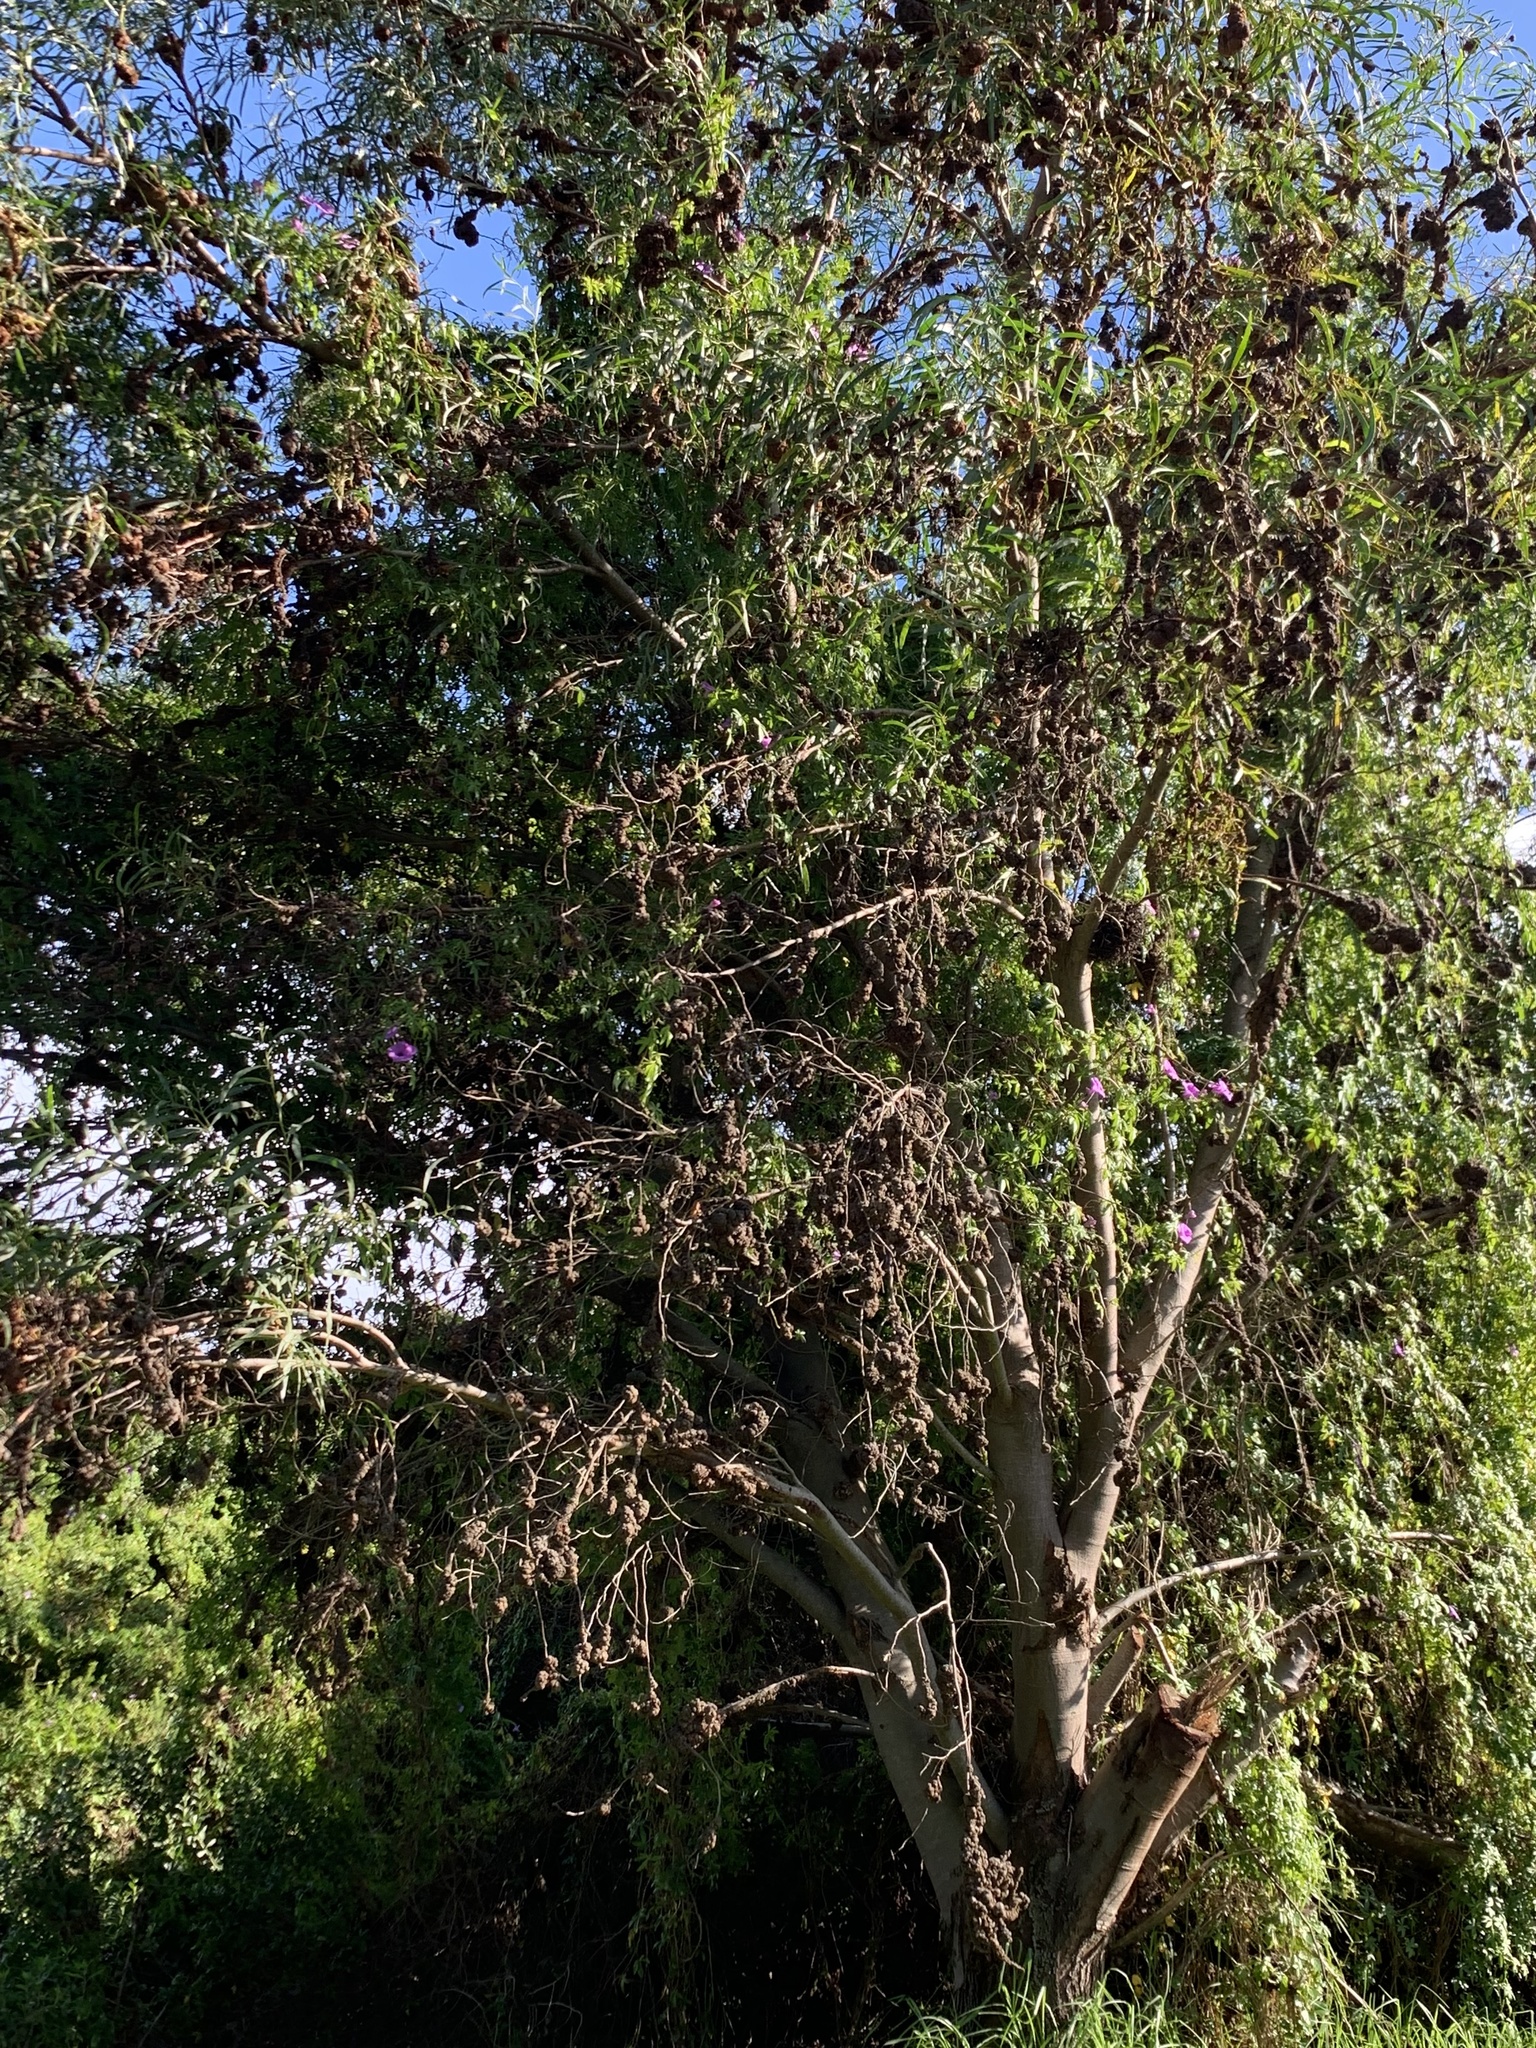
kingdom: Plantae
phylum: Tracheophyta
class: Magnoliopsida
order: Fabales
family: Fabaceae
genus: Acacia
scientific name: Acacia saligna
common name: Orange wattle
